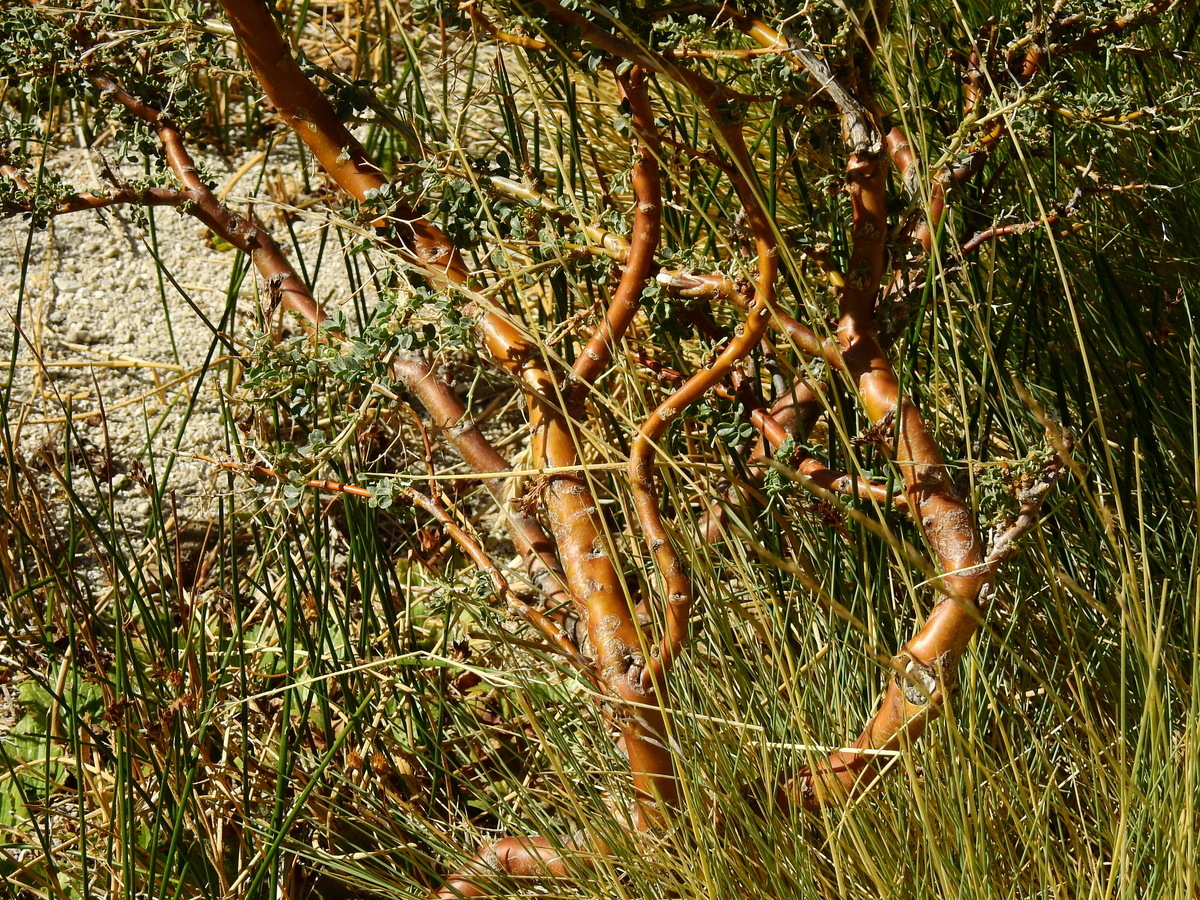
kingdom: Plantae
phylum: Tracheophyta
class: Magnoliopsida
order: Fabales
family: Fabaceae
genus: Adesmia
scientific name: Adesmia obovata
